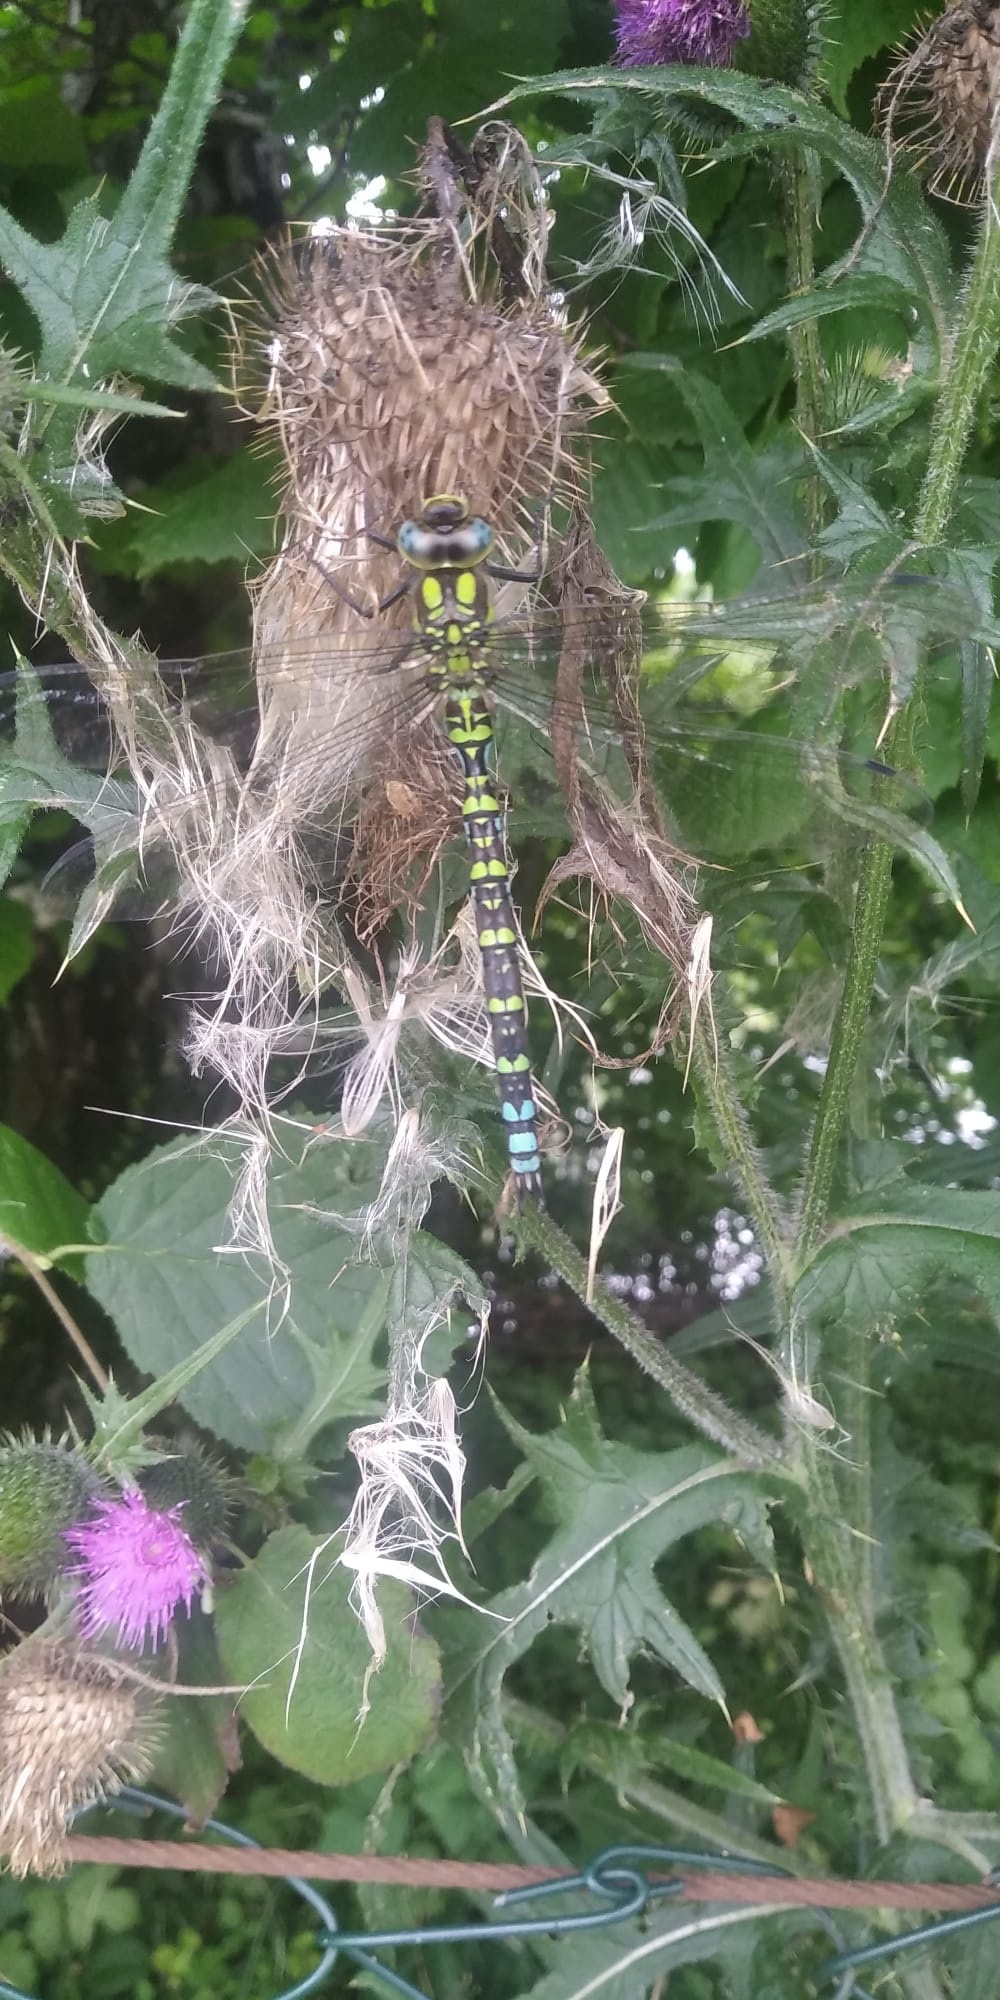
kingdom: Animalia
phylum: Arthropoda
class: Insecta
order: Odonata
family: Aeshnidae
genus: Aeshna
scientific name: Aeshna cyanea
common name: Southern hawker
